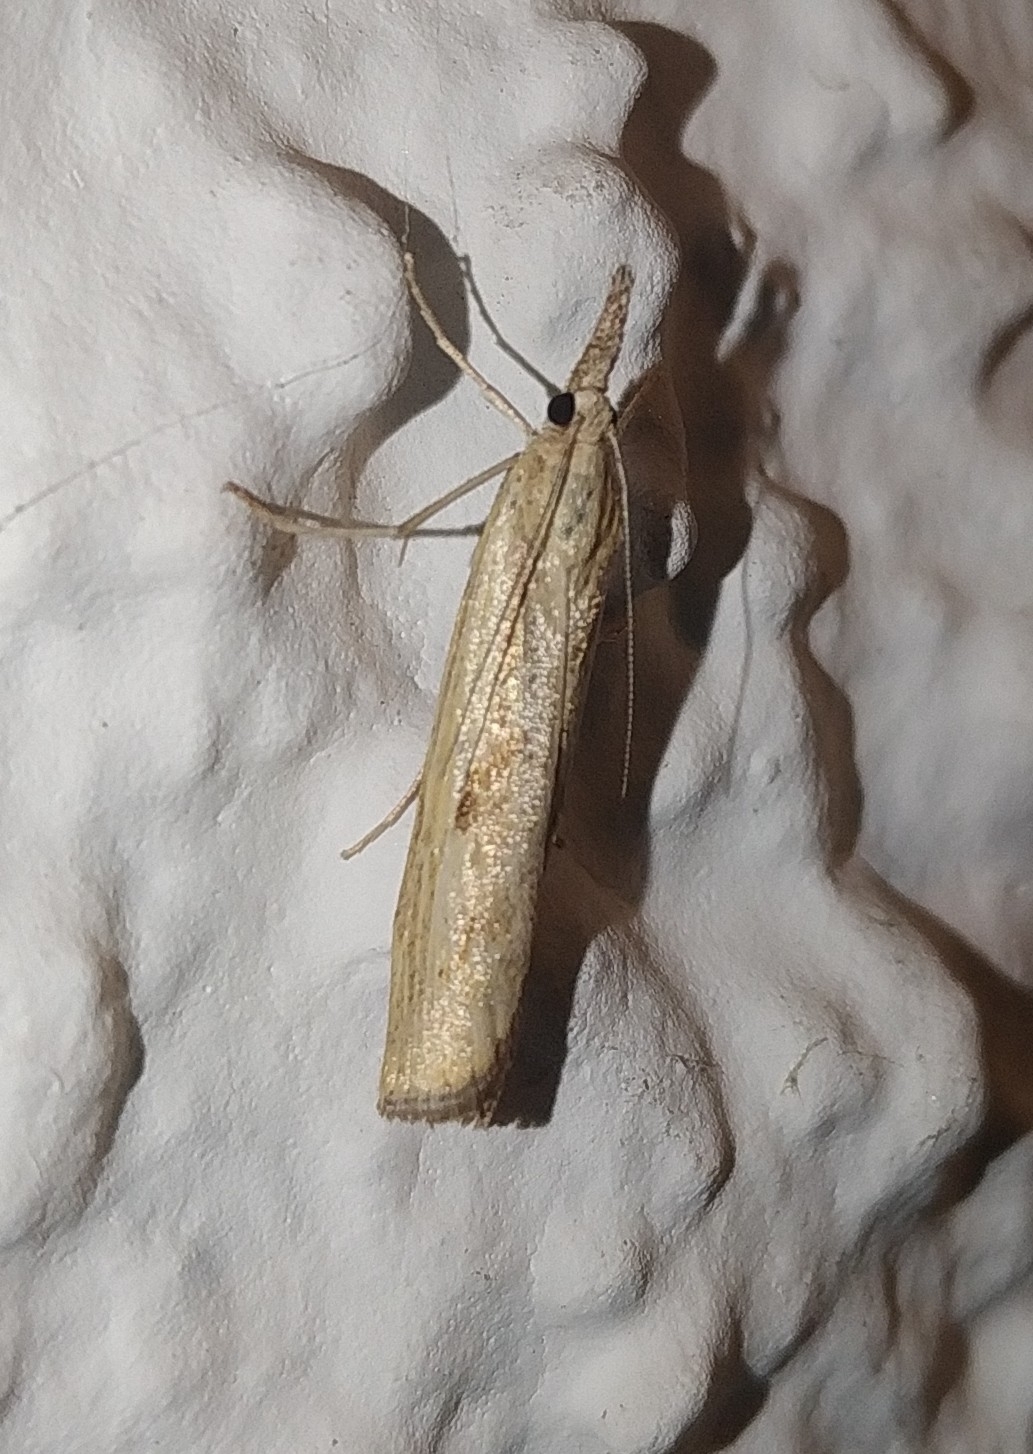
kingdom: Animalia
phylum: Arthropoda
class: Insecta
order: Lepidoptera
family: Crambidae
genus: Agriphila
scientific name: Agriphila inquinatella
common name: Barred grass-veneer
